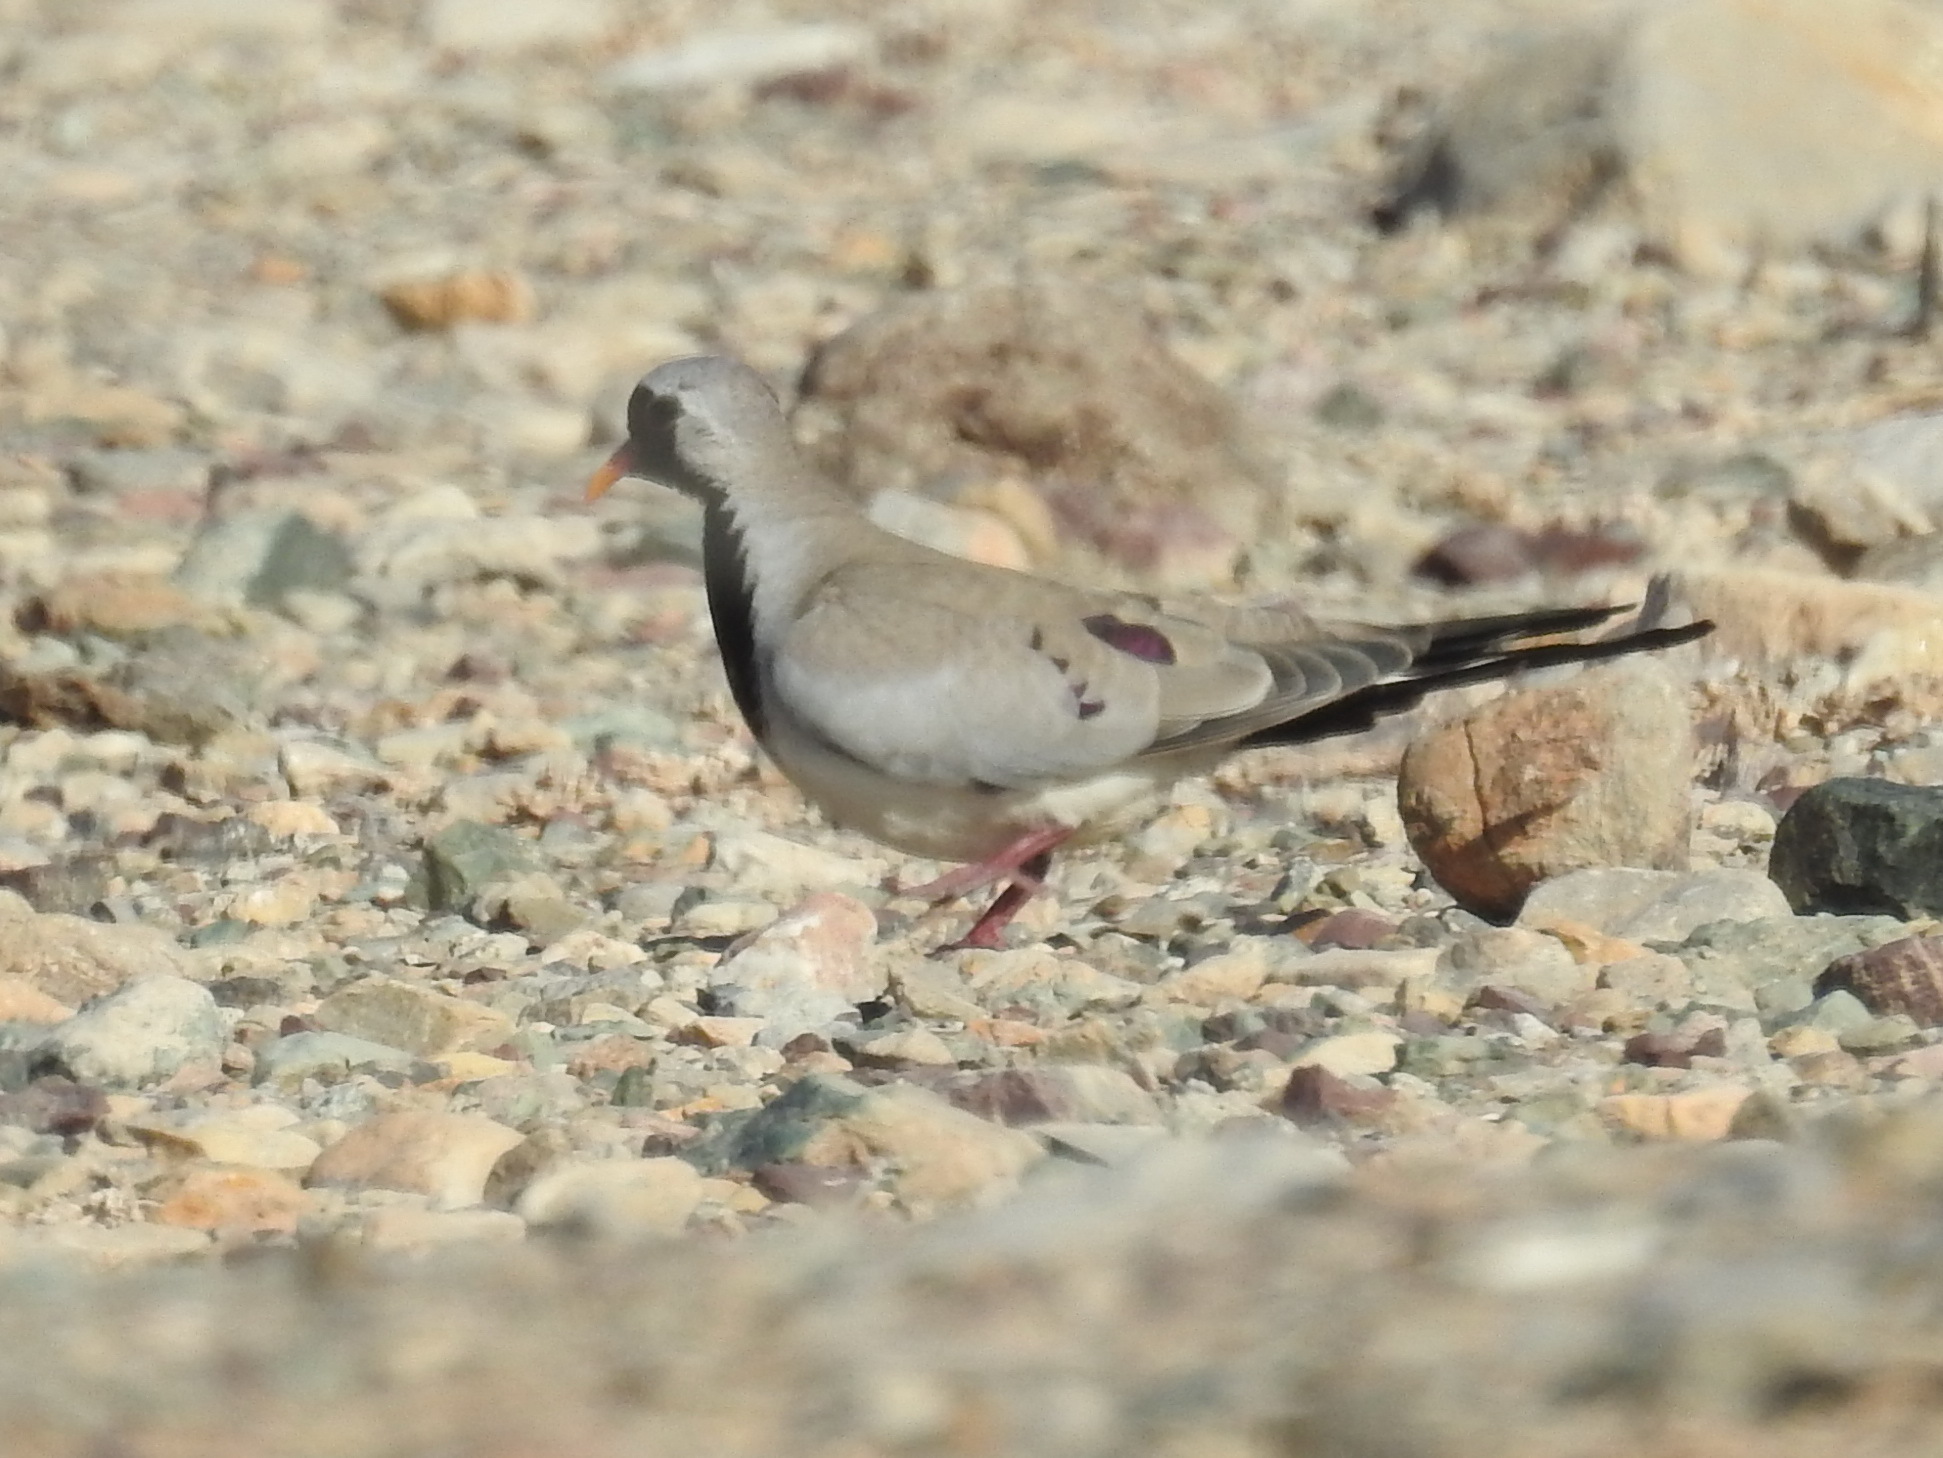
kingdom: Animalia
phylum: Chordata
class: Aves
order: Columbiformes
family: Columbidae
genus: Oena
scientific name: Oena capensis
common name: Namaqua dove
